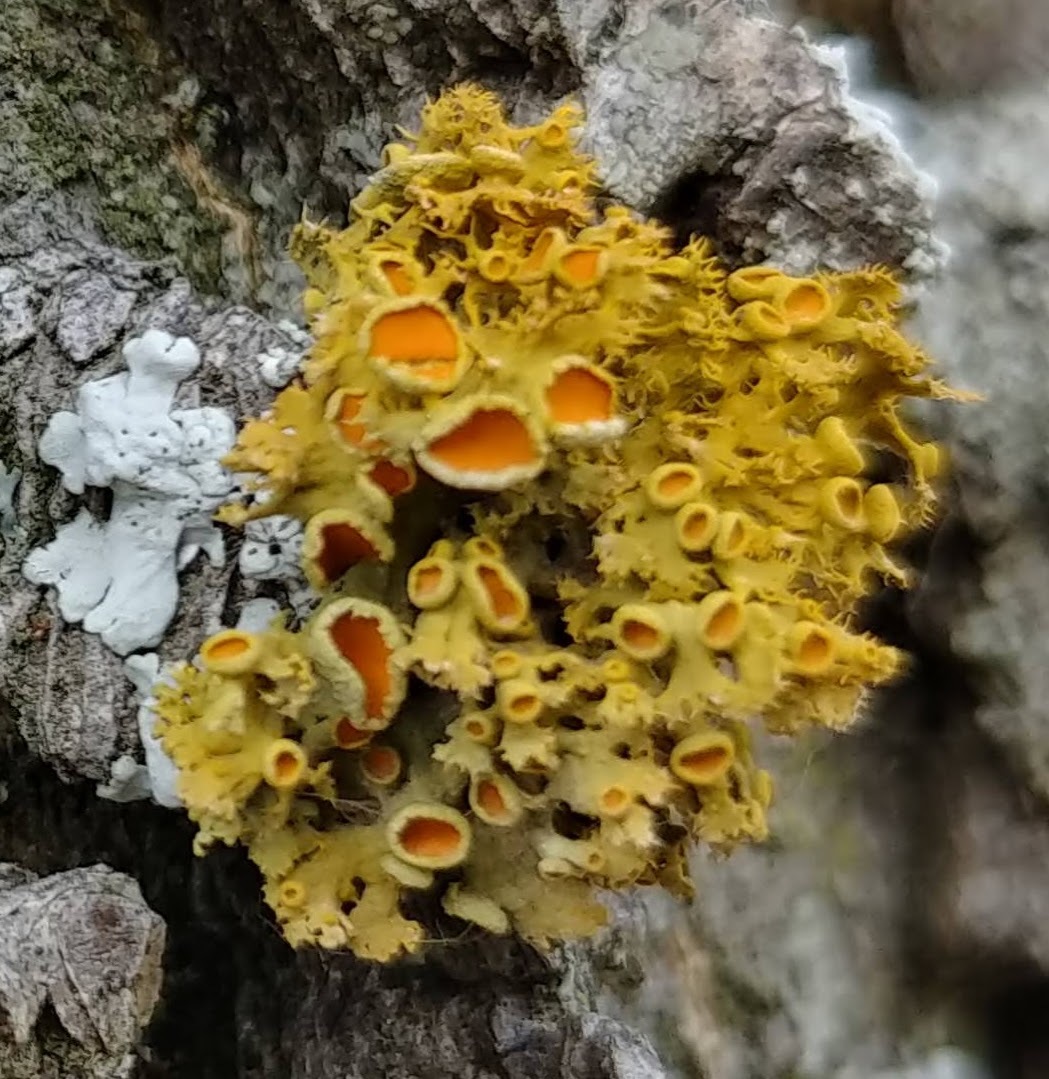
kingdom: Fungi
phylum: Ascomycota
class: Lecanoromycetes
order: Teloschistales
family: Teloschistaceae
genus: Niorma
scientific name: Niorma chrysophthalma
